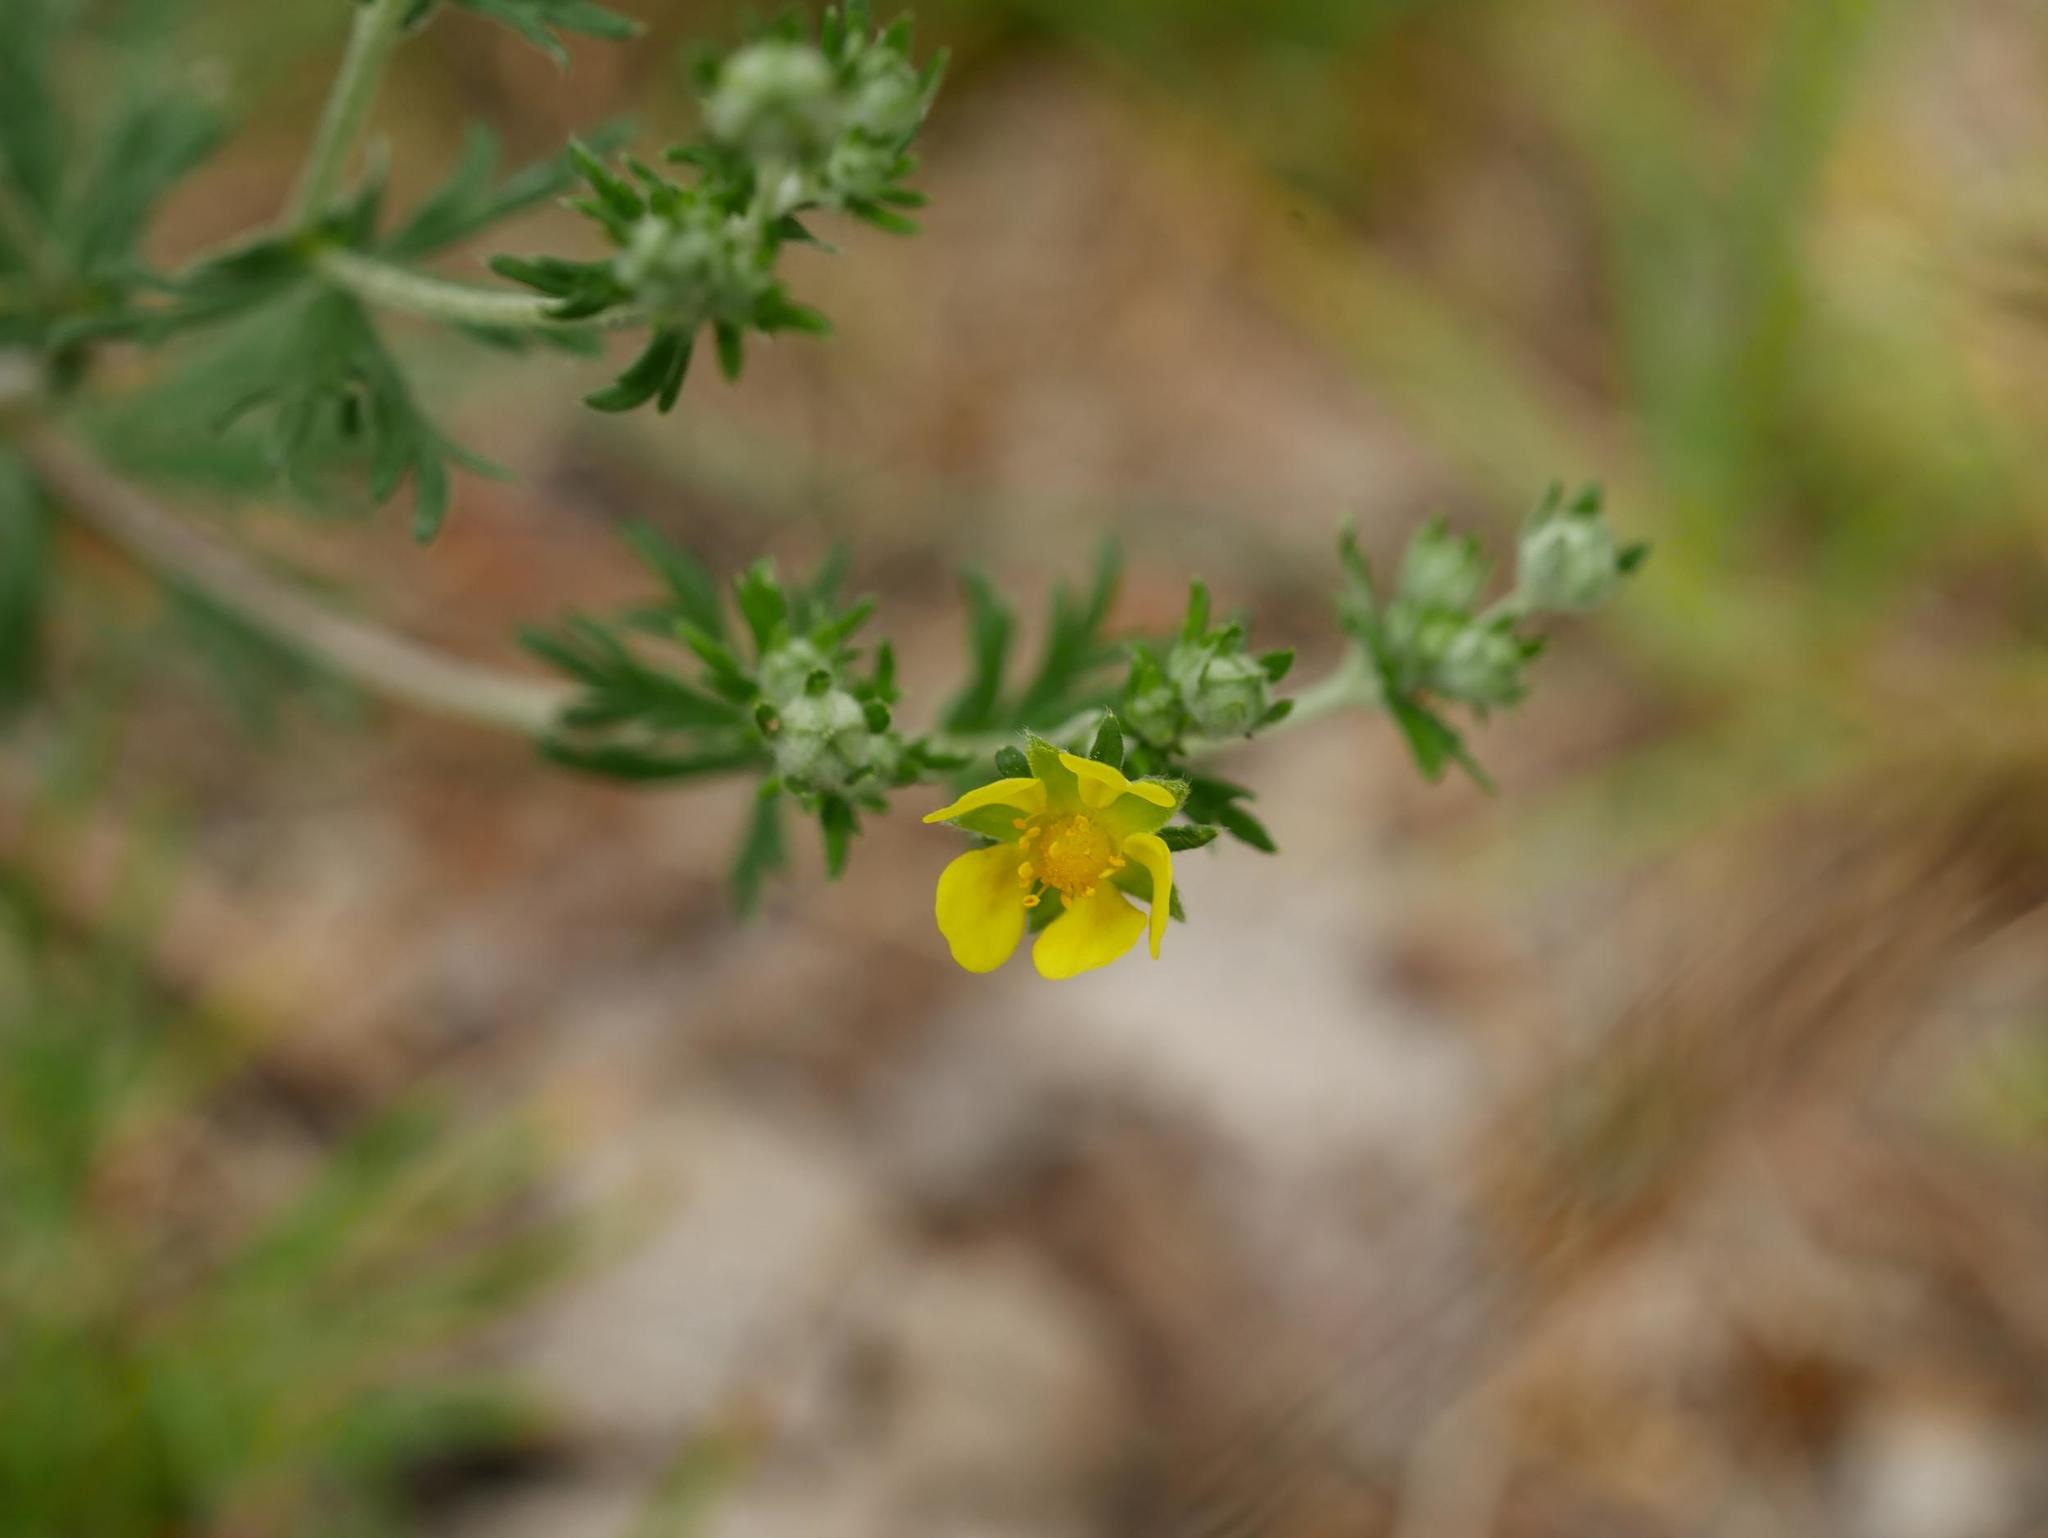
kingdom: Plantae
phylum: Tracheophyta
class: Magnoliopsida
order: Rosales
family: Rosaceae
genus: Potentilla
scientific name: Potentilla argentea
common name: Hoary cinquefoil
